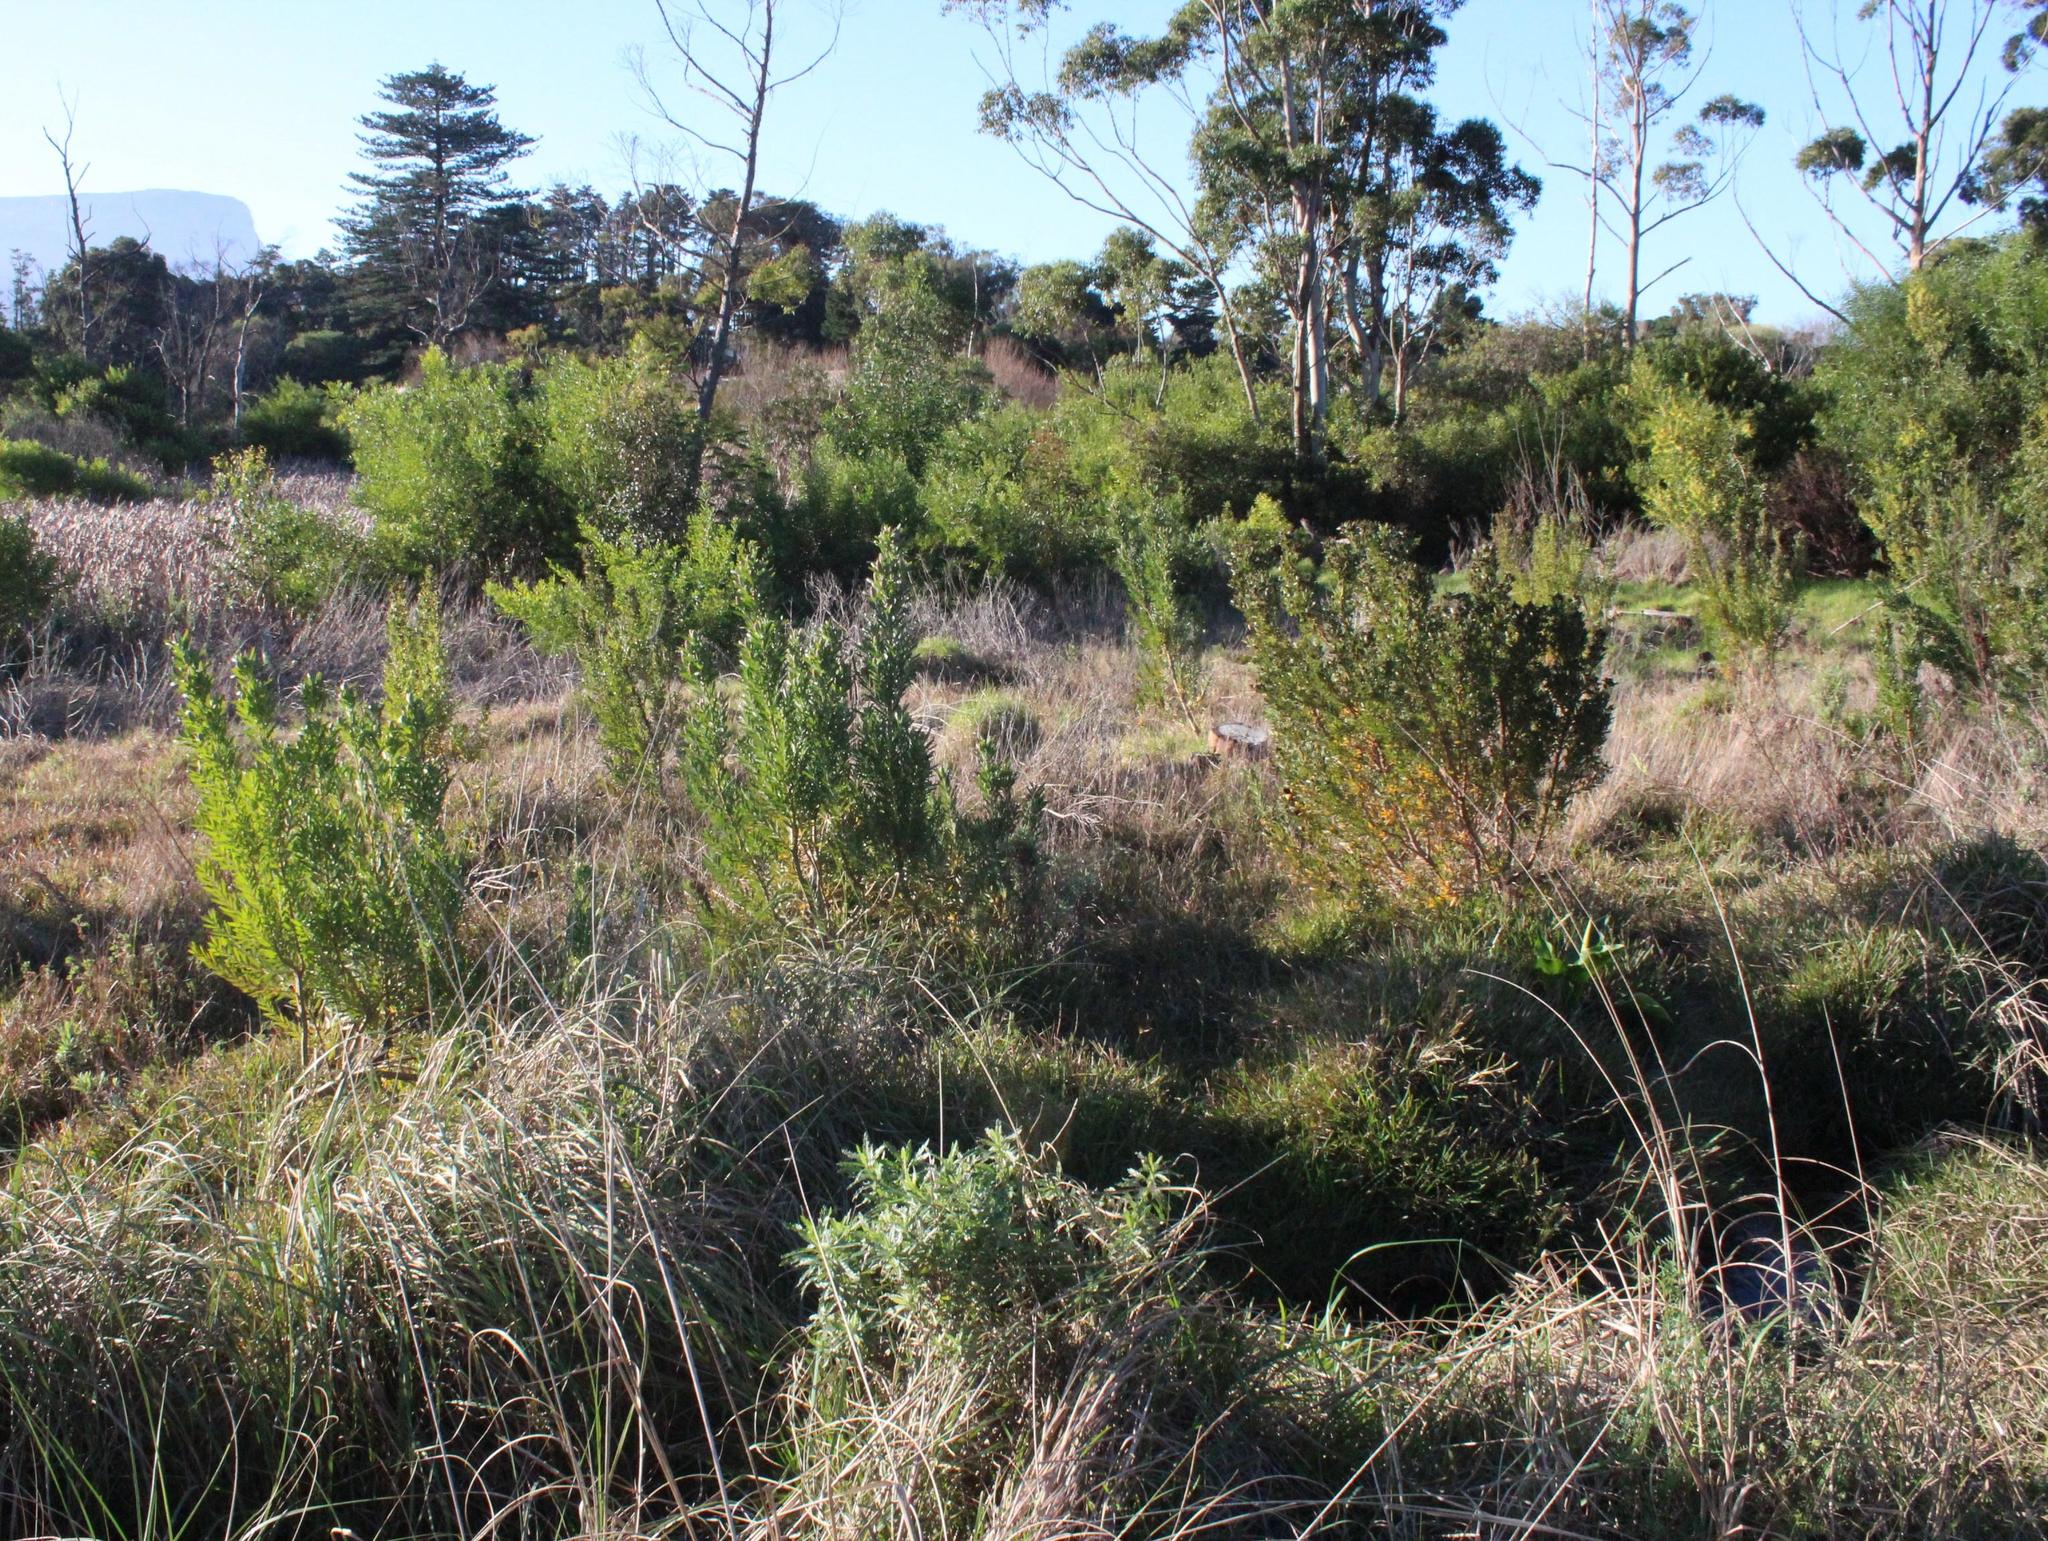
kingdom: Plantae
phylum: Tracheophyta
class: Magnoliopsida
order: Proteales
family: Proteaceae
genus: Leucadendron
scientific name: Leucadendron macowanii
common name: Acacia-leaf conebush
